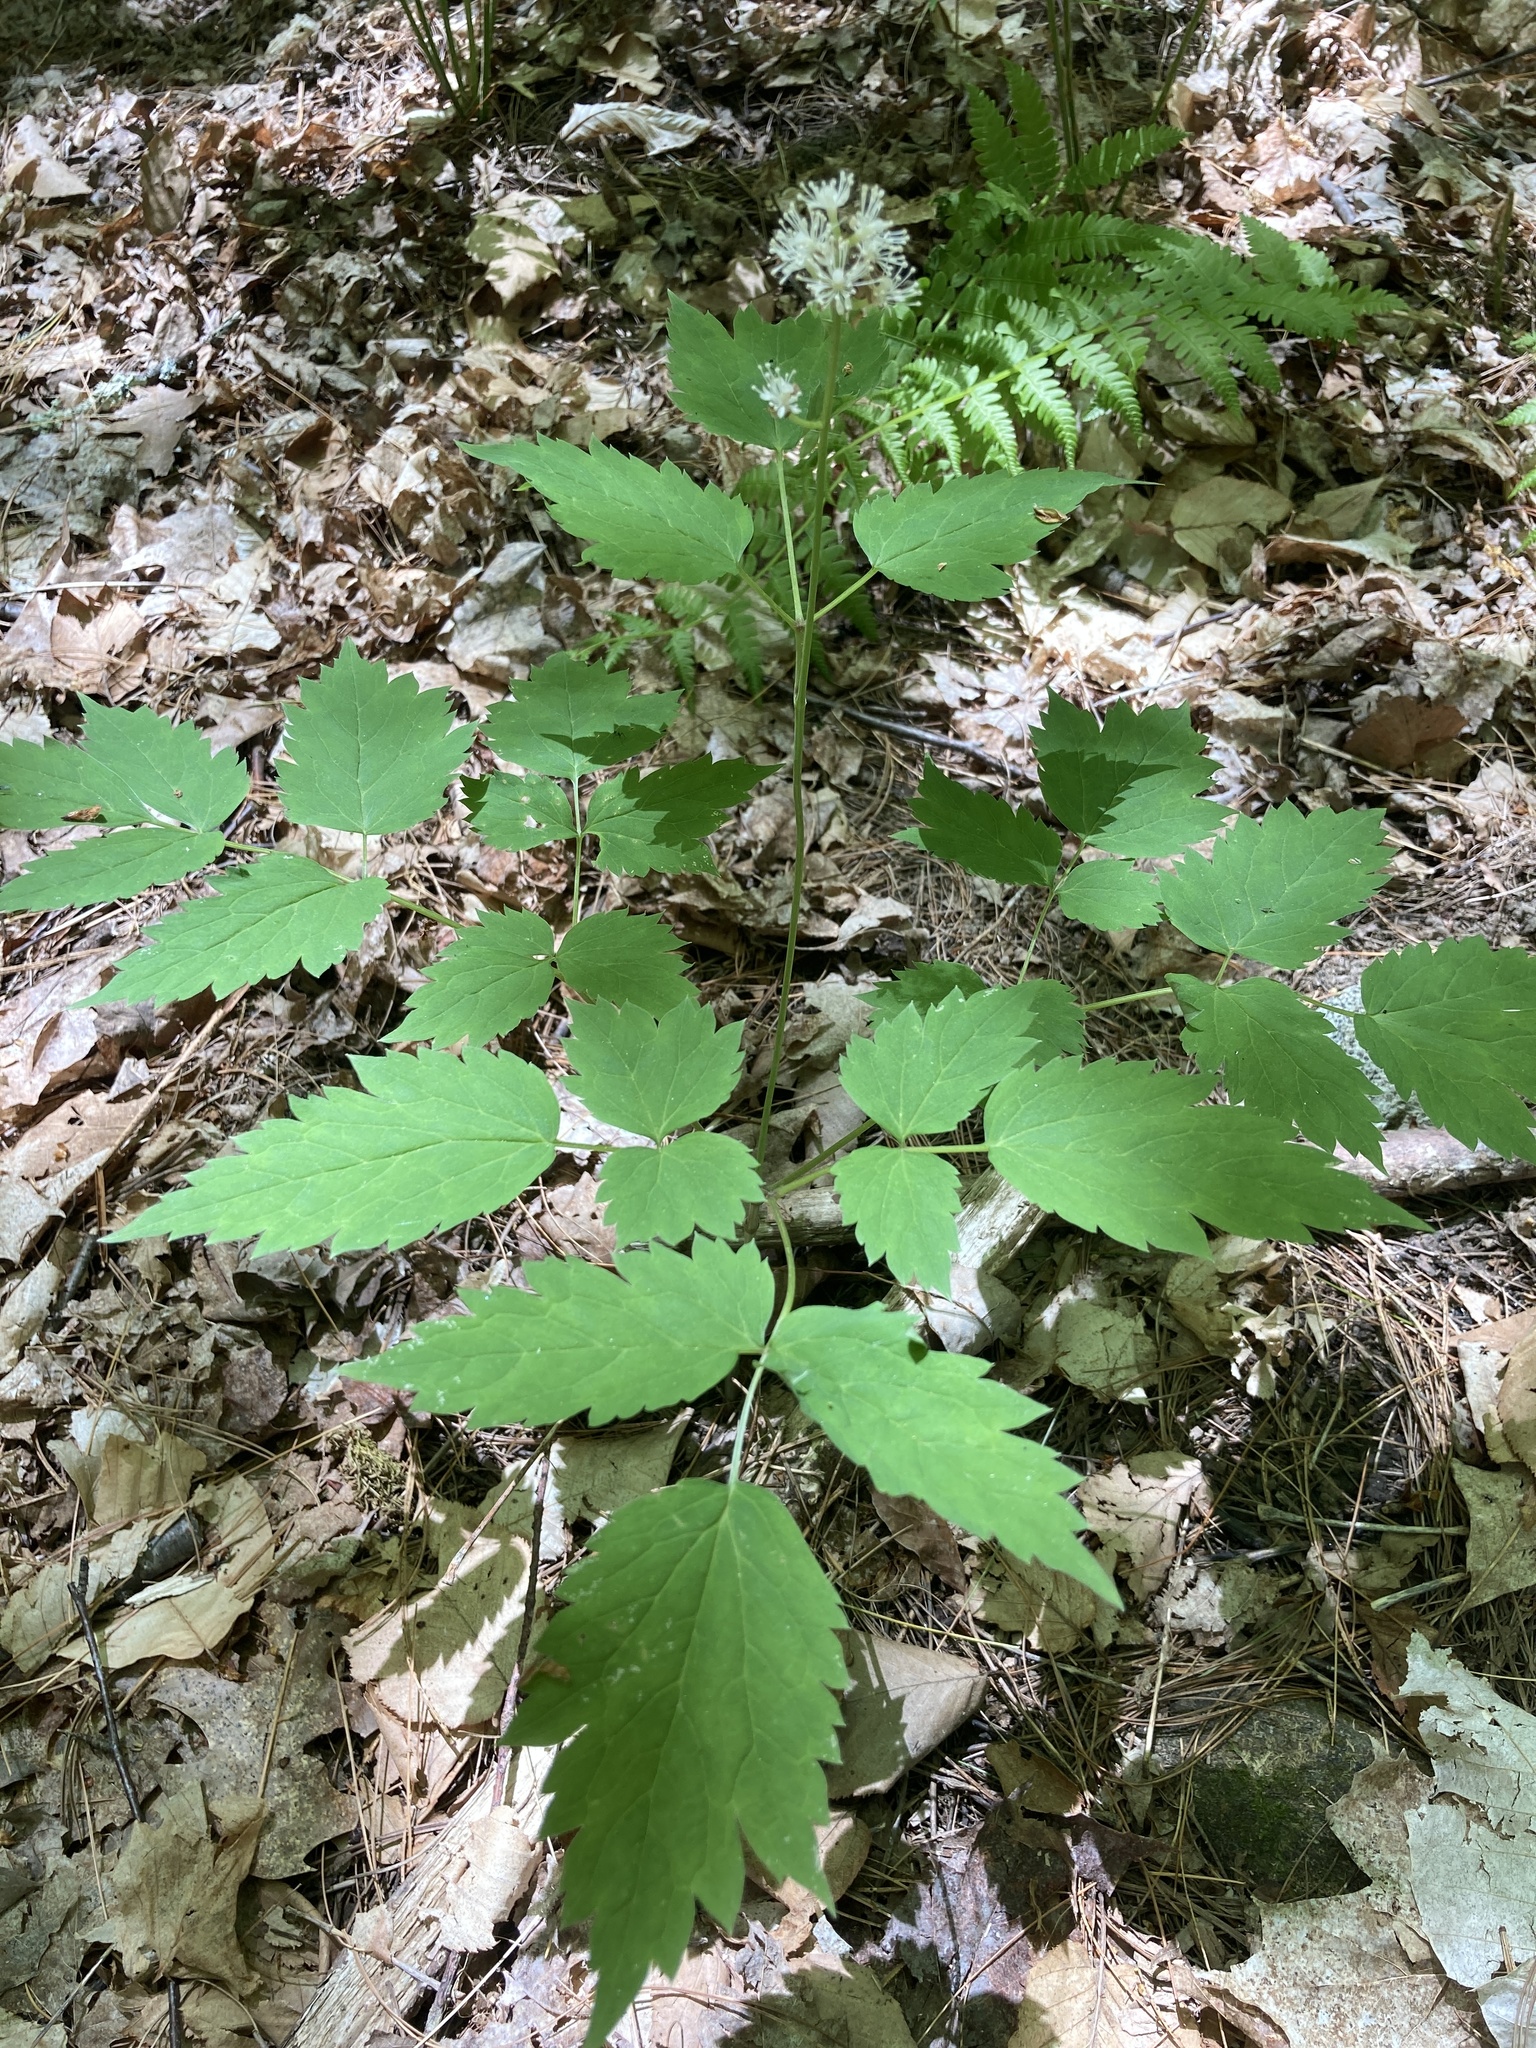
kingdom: Plantae
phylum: Tracheophyta
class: Magnoliopsida
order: Ranunculales
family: Ranunculaceae
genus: Actaea
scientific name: Actaea pachypoda
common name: Doll's-eyes
